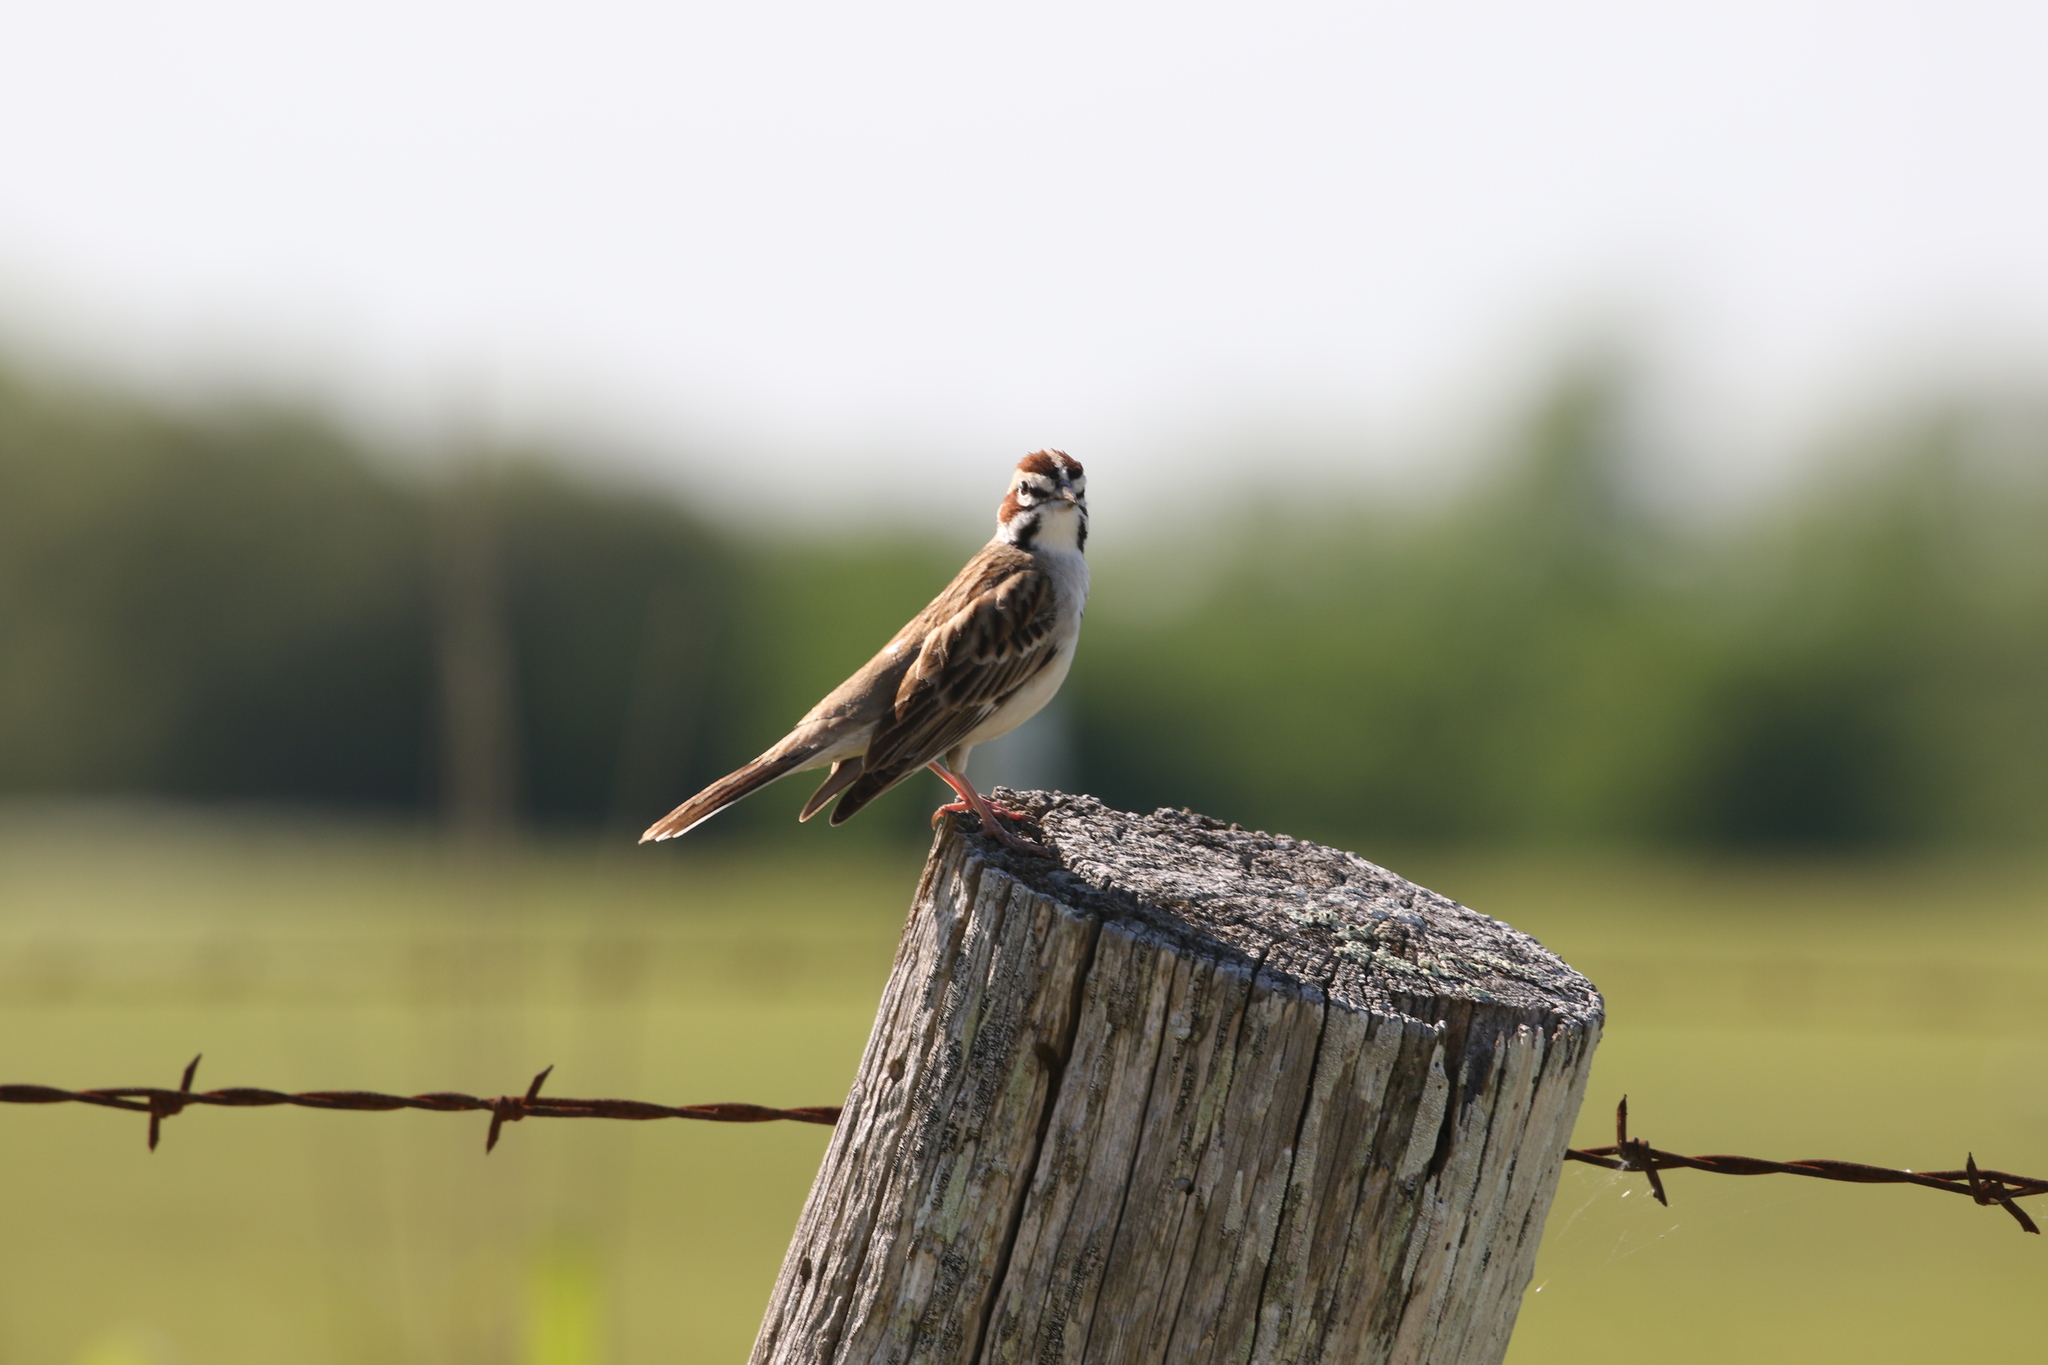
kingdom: Animalia
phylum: Chordata
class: Aves
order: Passeriformes
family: Passerellidae
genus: Chondestes
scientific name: Chondestes grammacus
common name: Lark sparrow
